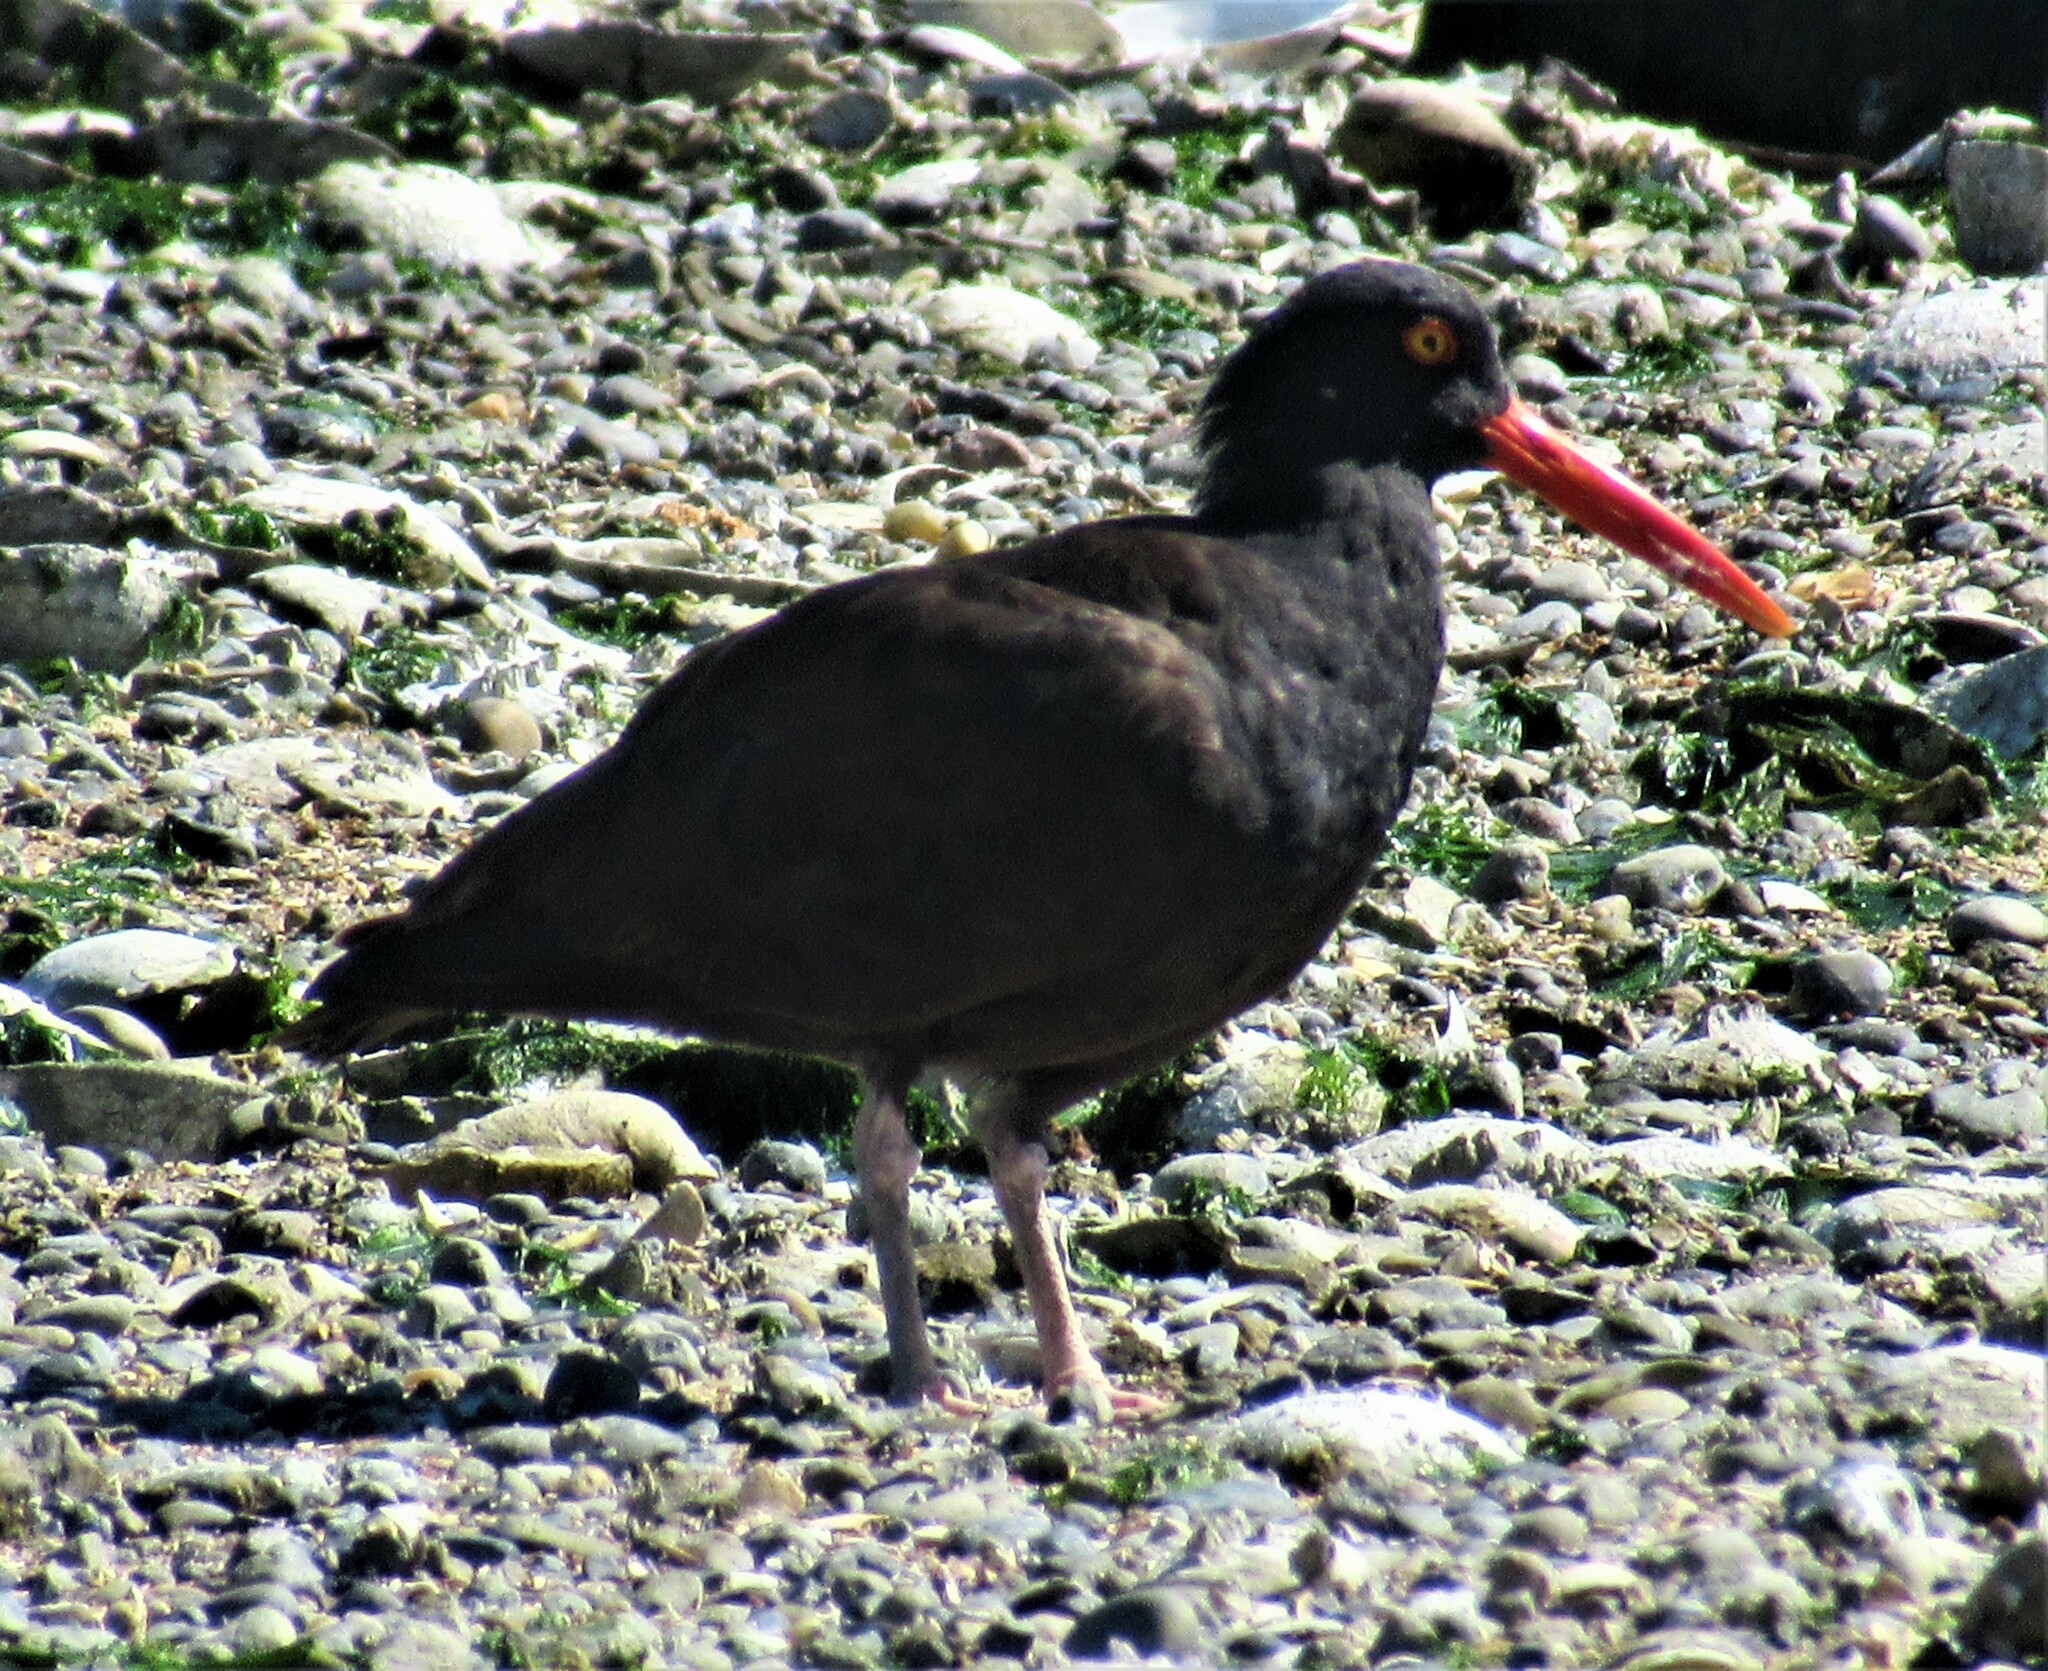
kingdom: Animalia
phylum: Chordata
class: Aves
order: Charadriiformes
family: Haematopodidae
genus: Haematopus
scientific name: Haematopus bachmani
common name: Black oystercatcher
